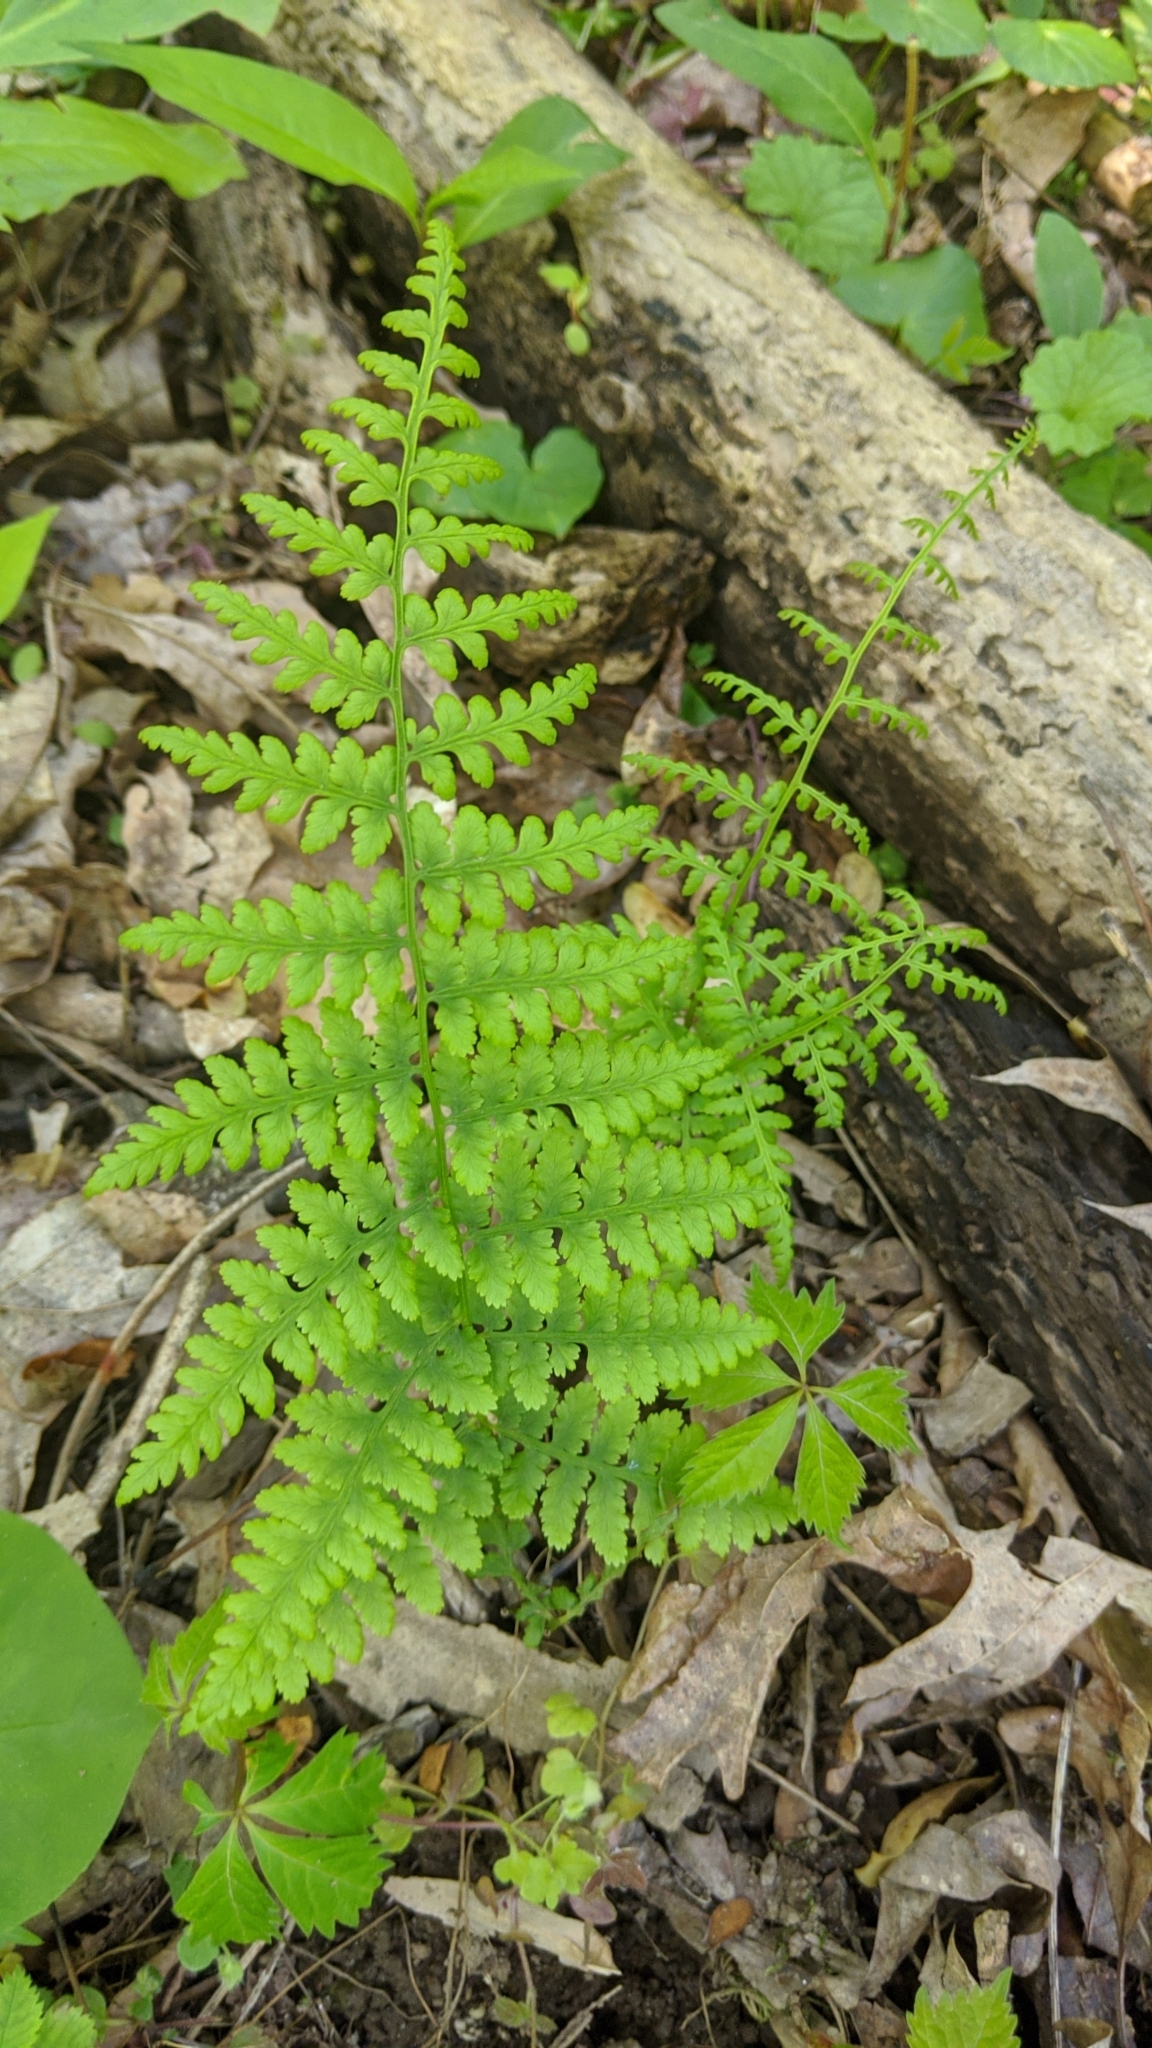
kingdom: Plantae
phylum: Tracheophyta
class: Polypodiopsida
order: Polypodiales
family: Athyriaceae
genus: Athyrium
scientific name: Athyrium asplenioides
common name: Southern lady fern
